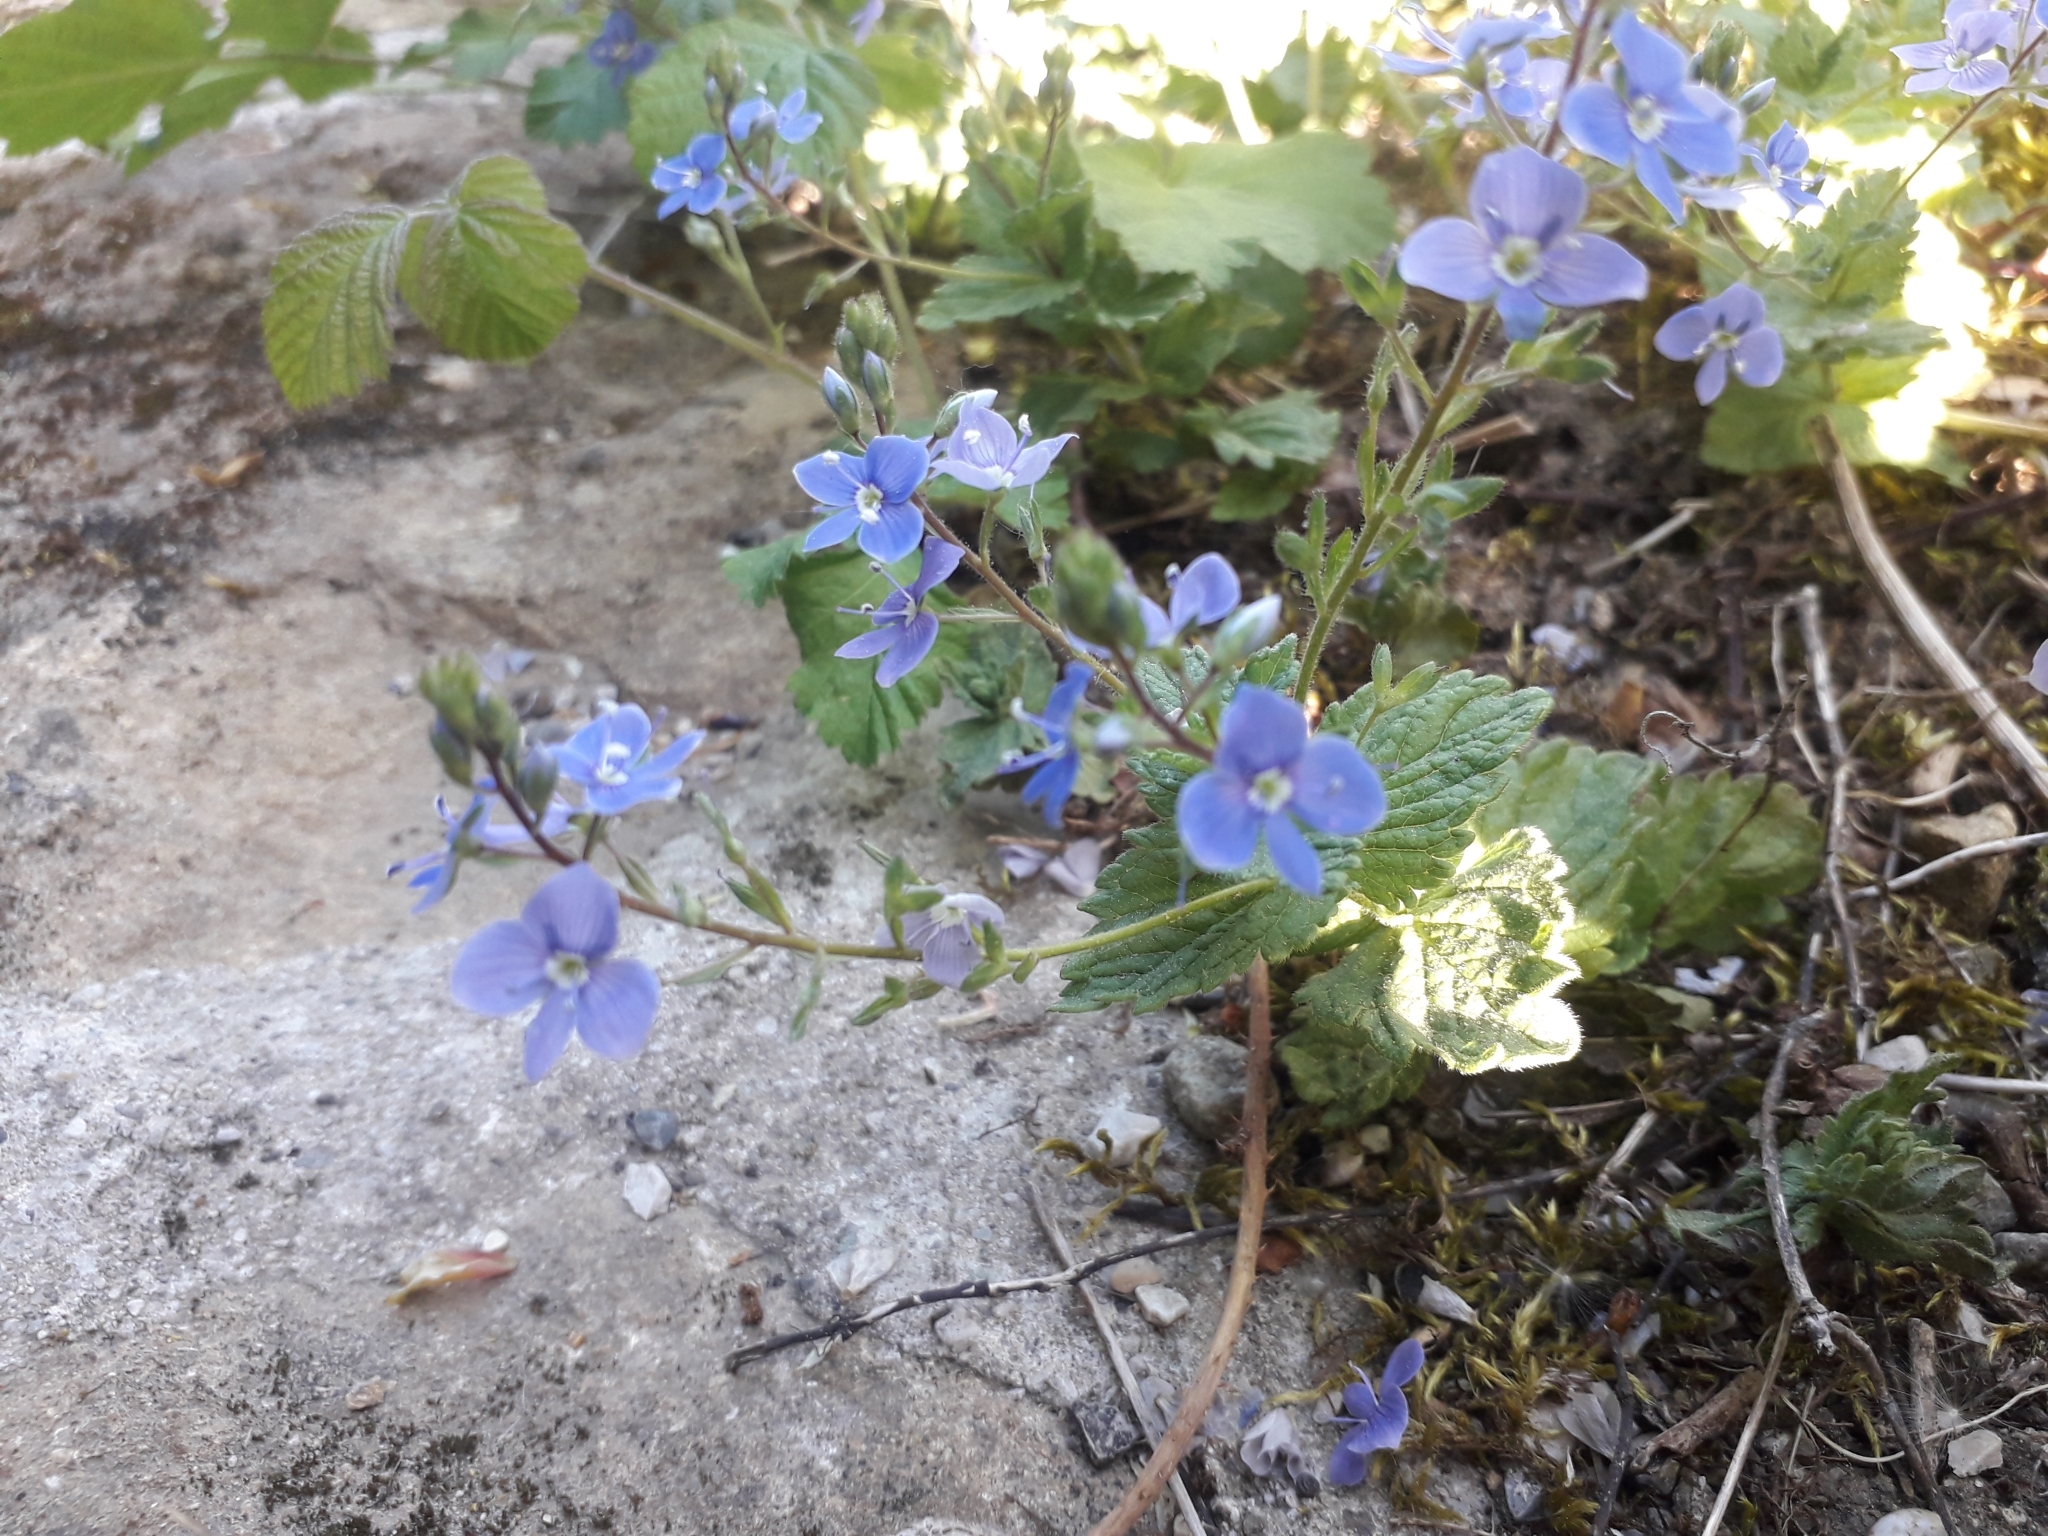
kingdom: Plantae
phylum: Tracheophyta
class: Magnoliopsida
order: Lamiales
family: Plantaginaceae
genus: Veronica
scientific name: Veronica chamaedrys
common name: Germander speedwell
